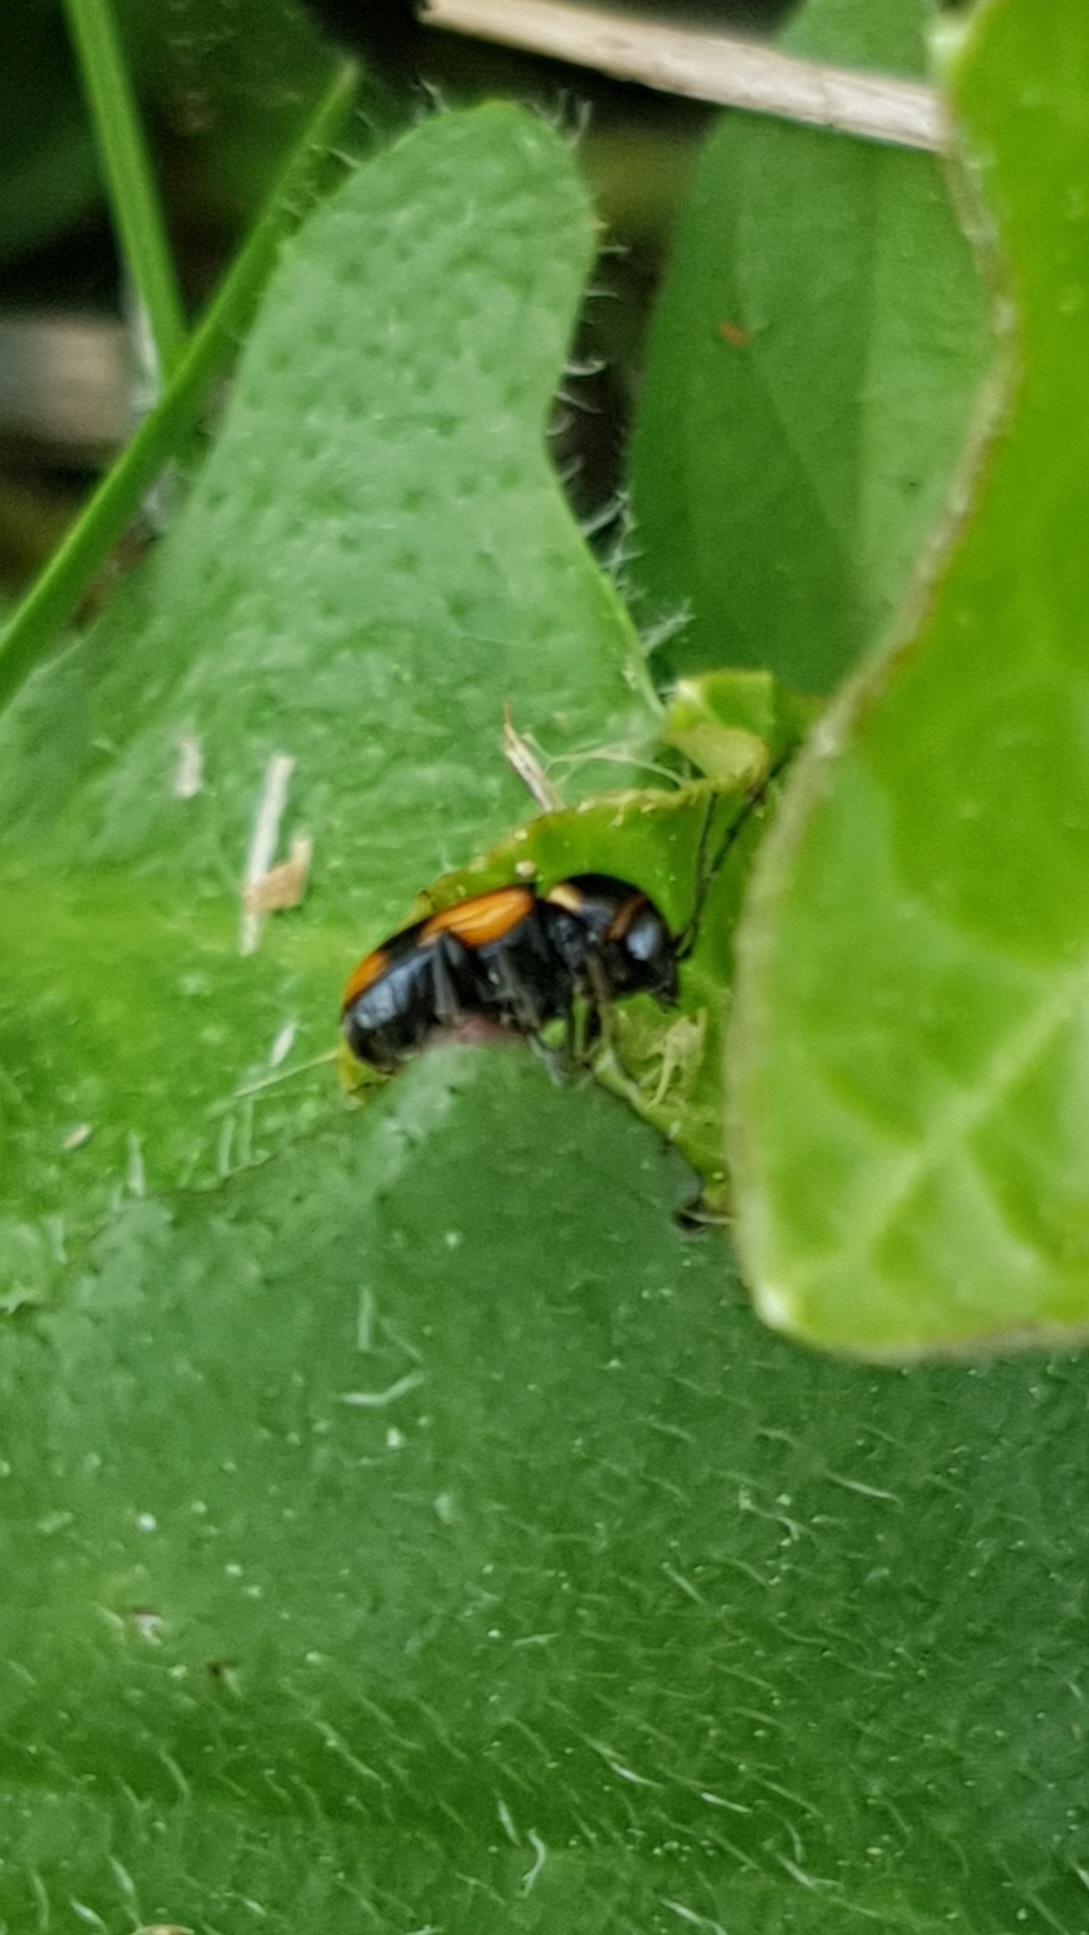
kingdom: Animalia
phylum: Arthropoda
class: Insecta
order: Coleoptera
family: Chrysomelidae
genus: Cryptocephalus
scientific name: Cryptocephalus moraei
